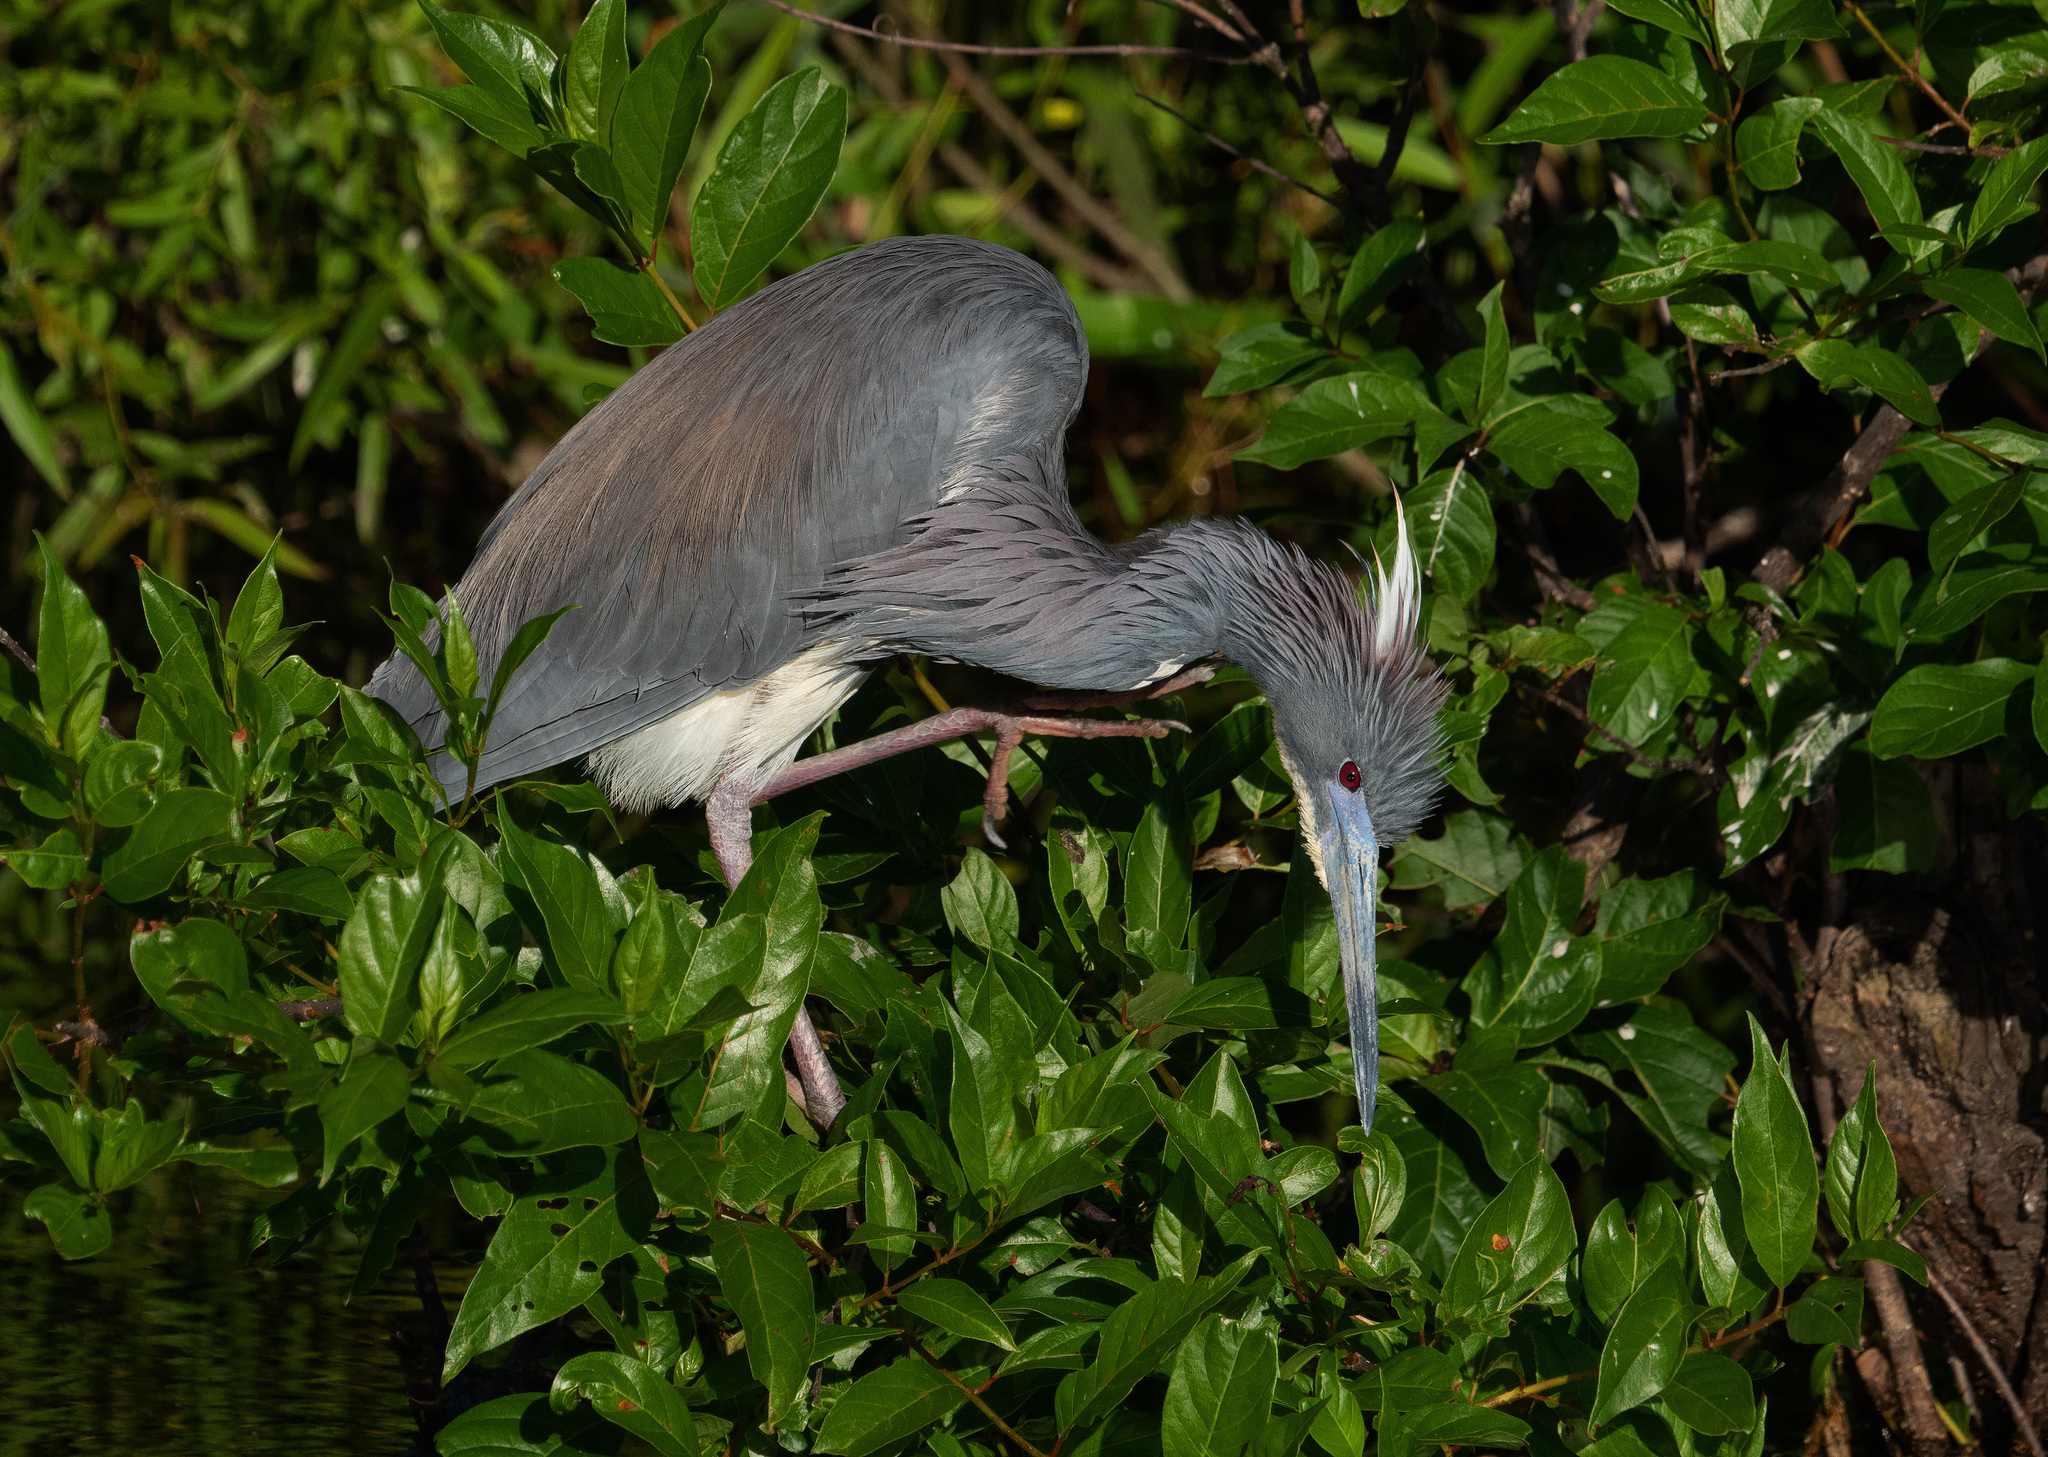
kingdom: Animalia
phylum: Chordata
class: Aves
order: Pelecaniformes
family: Ardeidae
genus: Egretta
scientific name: Egretta tricolor
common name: Tricolored heron
